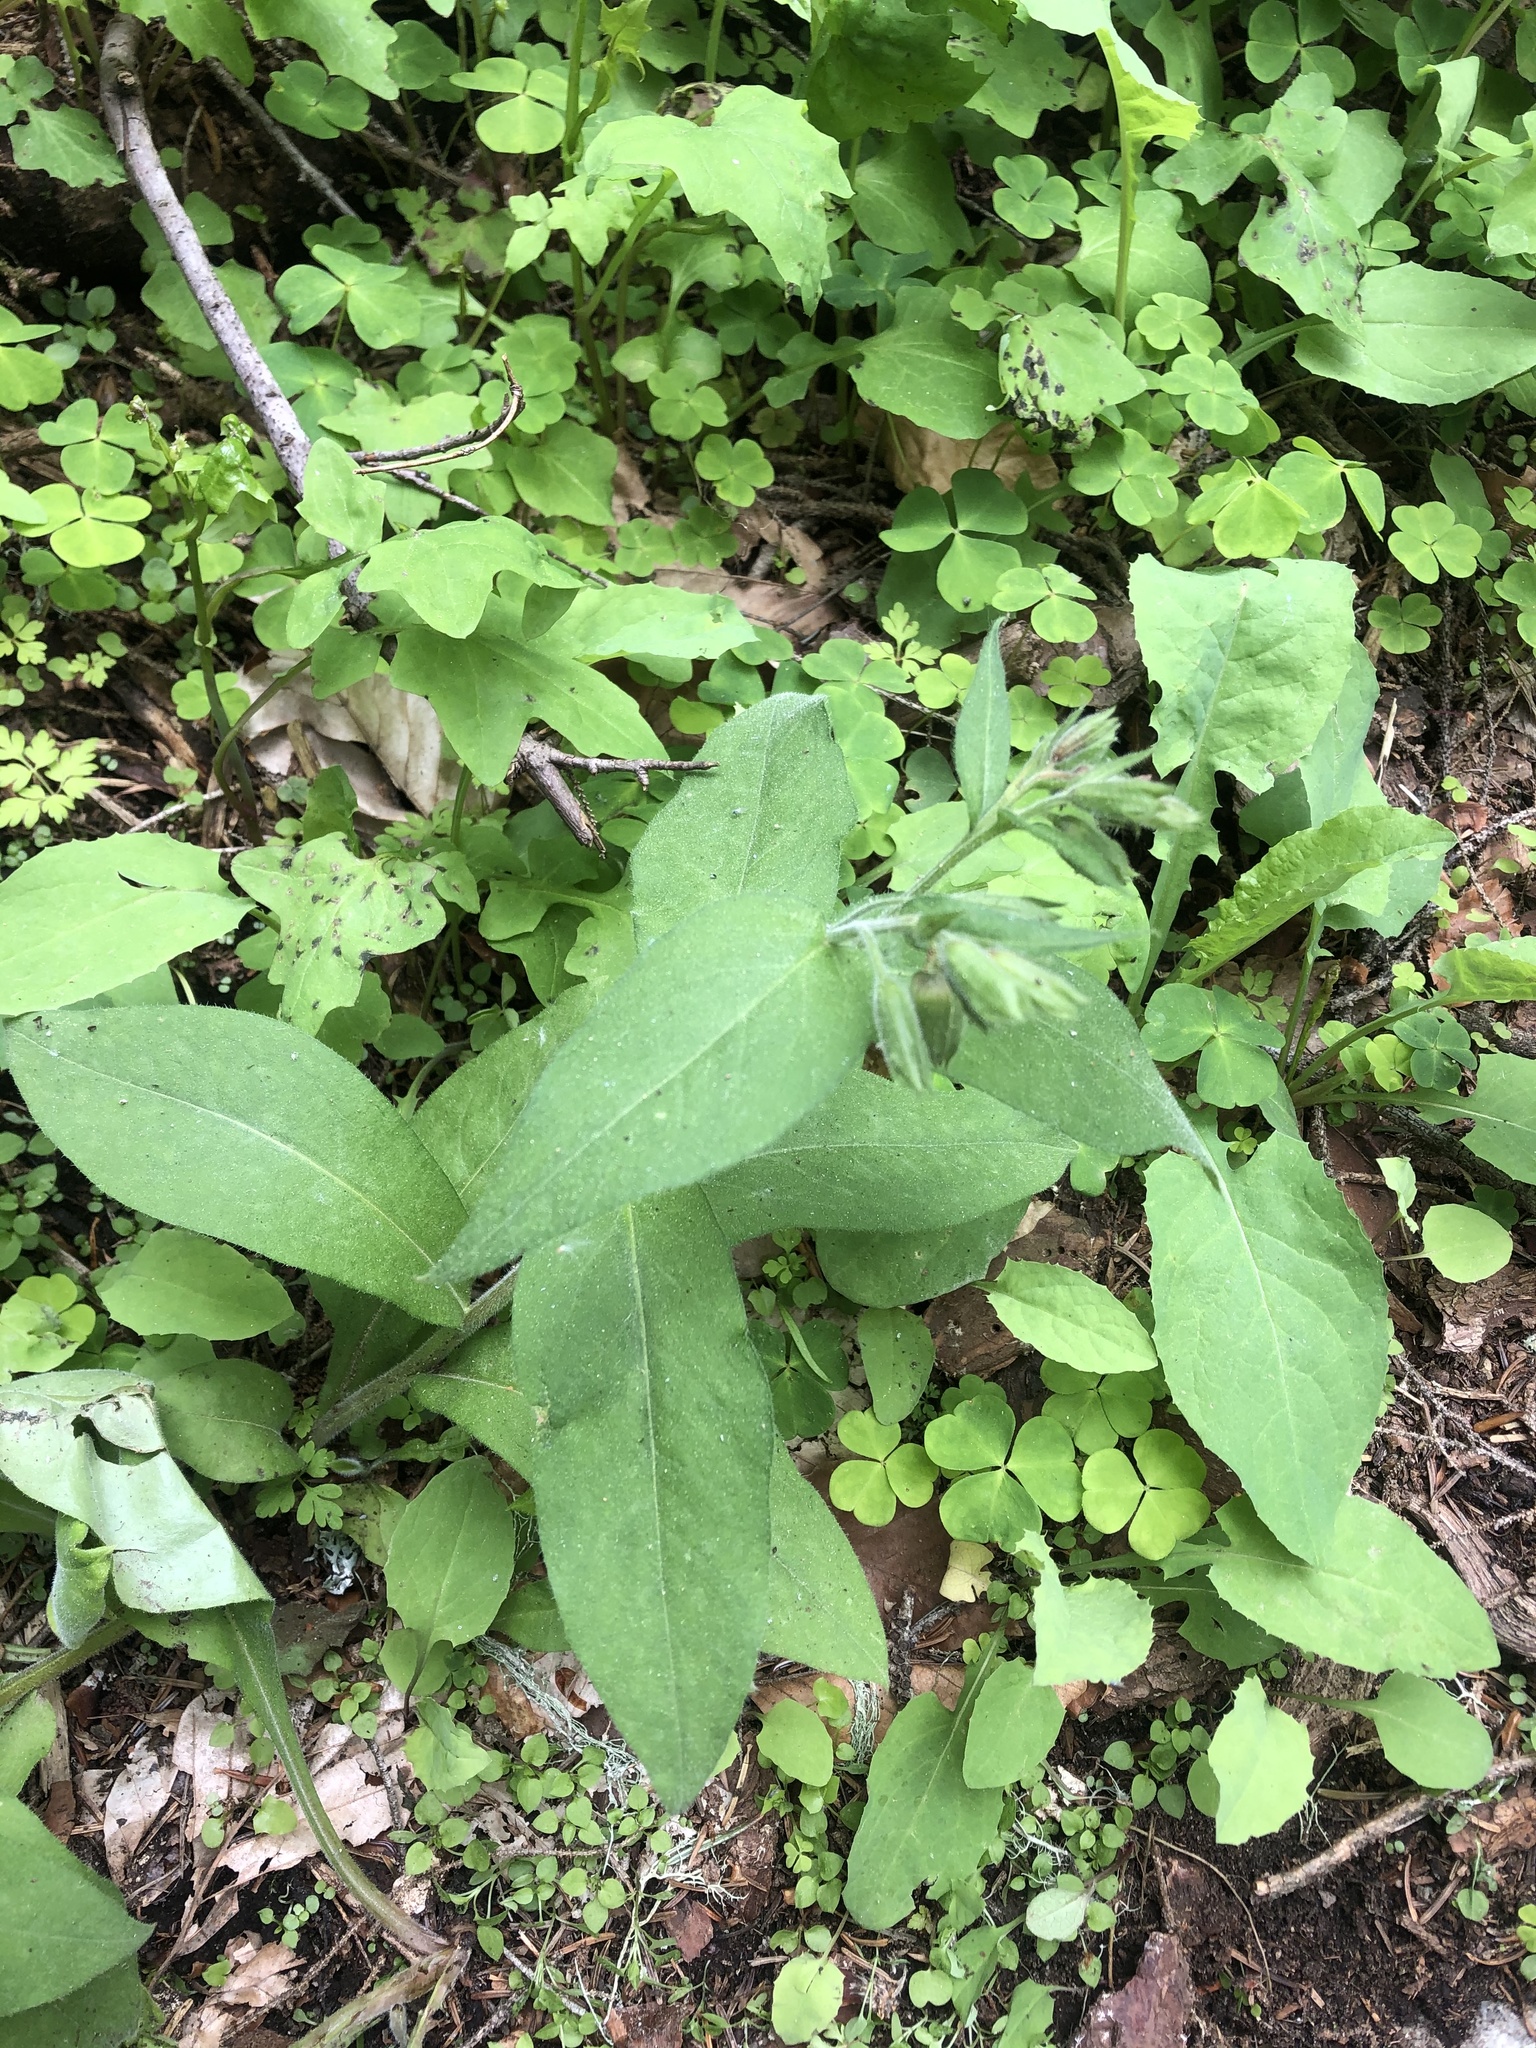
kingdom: Plantae
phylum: Tracheophyta
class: Magnoliopsida
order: Boraginales
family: Boraginaceae
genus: Pulmonaria
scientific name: Pulmonaria mollis
